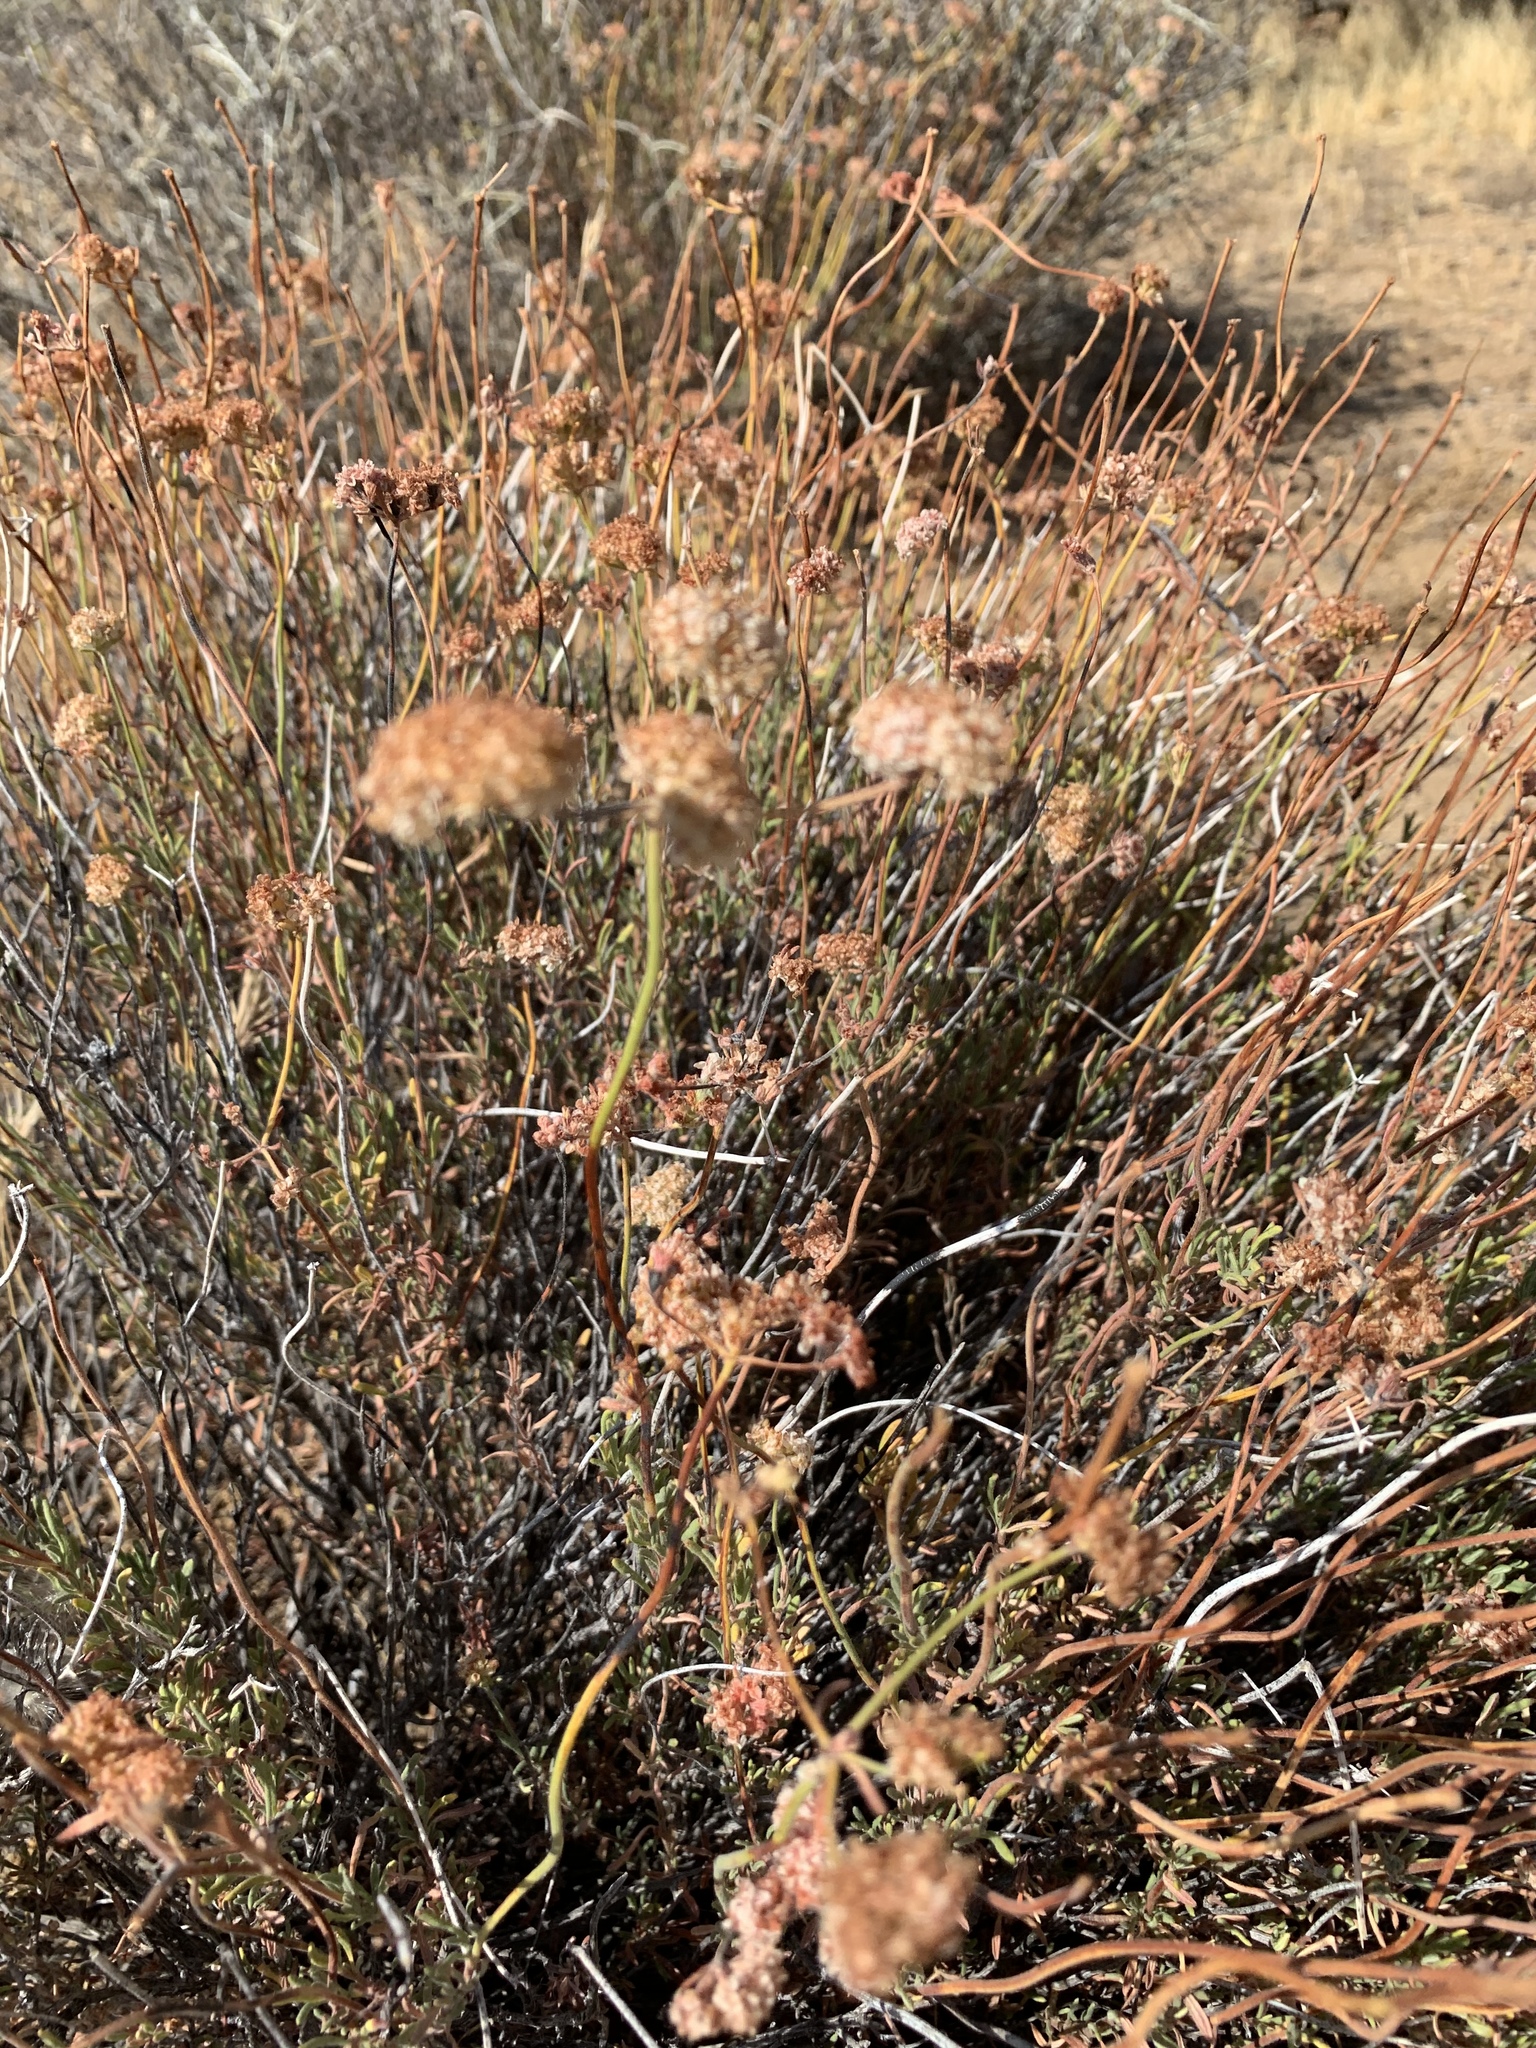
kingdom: Plantae
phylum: Tracheophyta
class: Magnoliopsida
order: Caryophyllales
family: Polygonaceae
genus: Eriogonum
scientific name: Eriogonum fasciculatum
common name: California wild buckwheat
